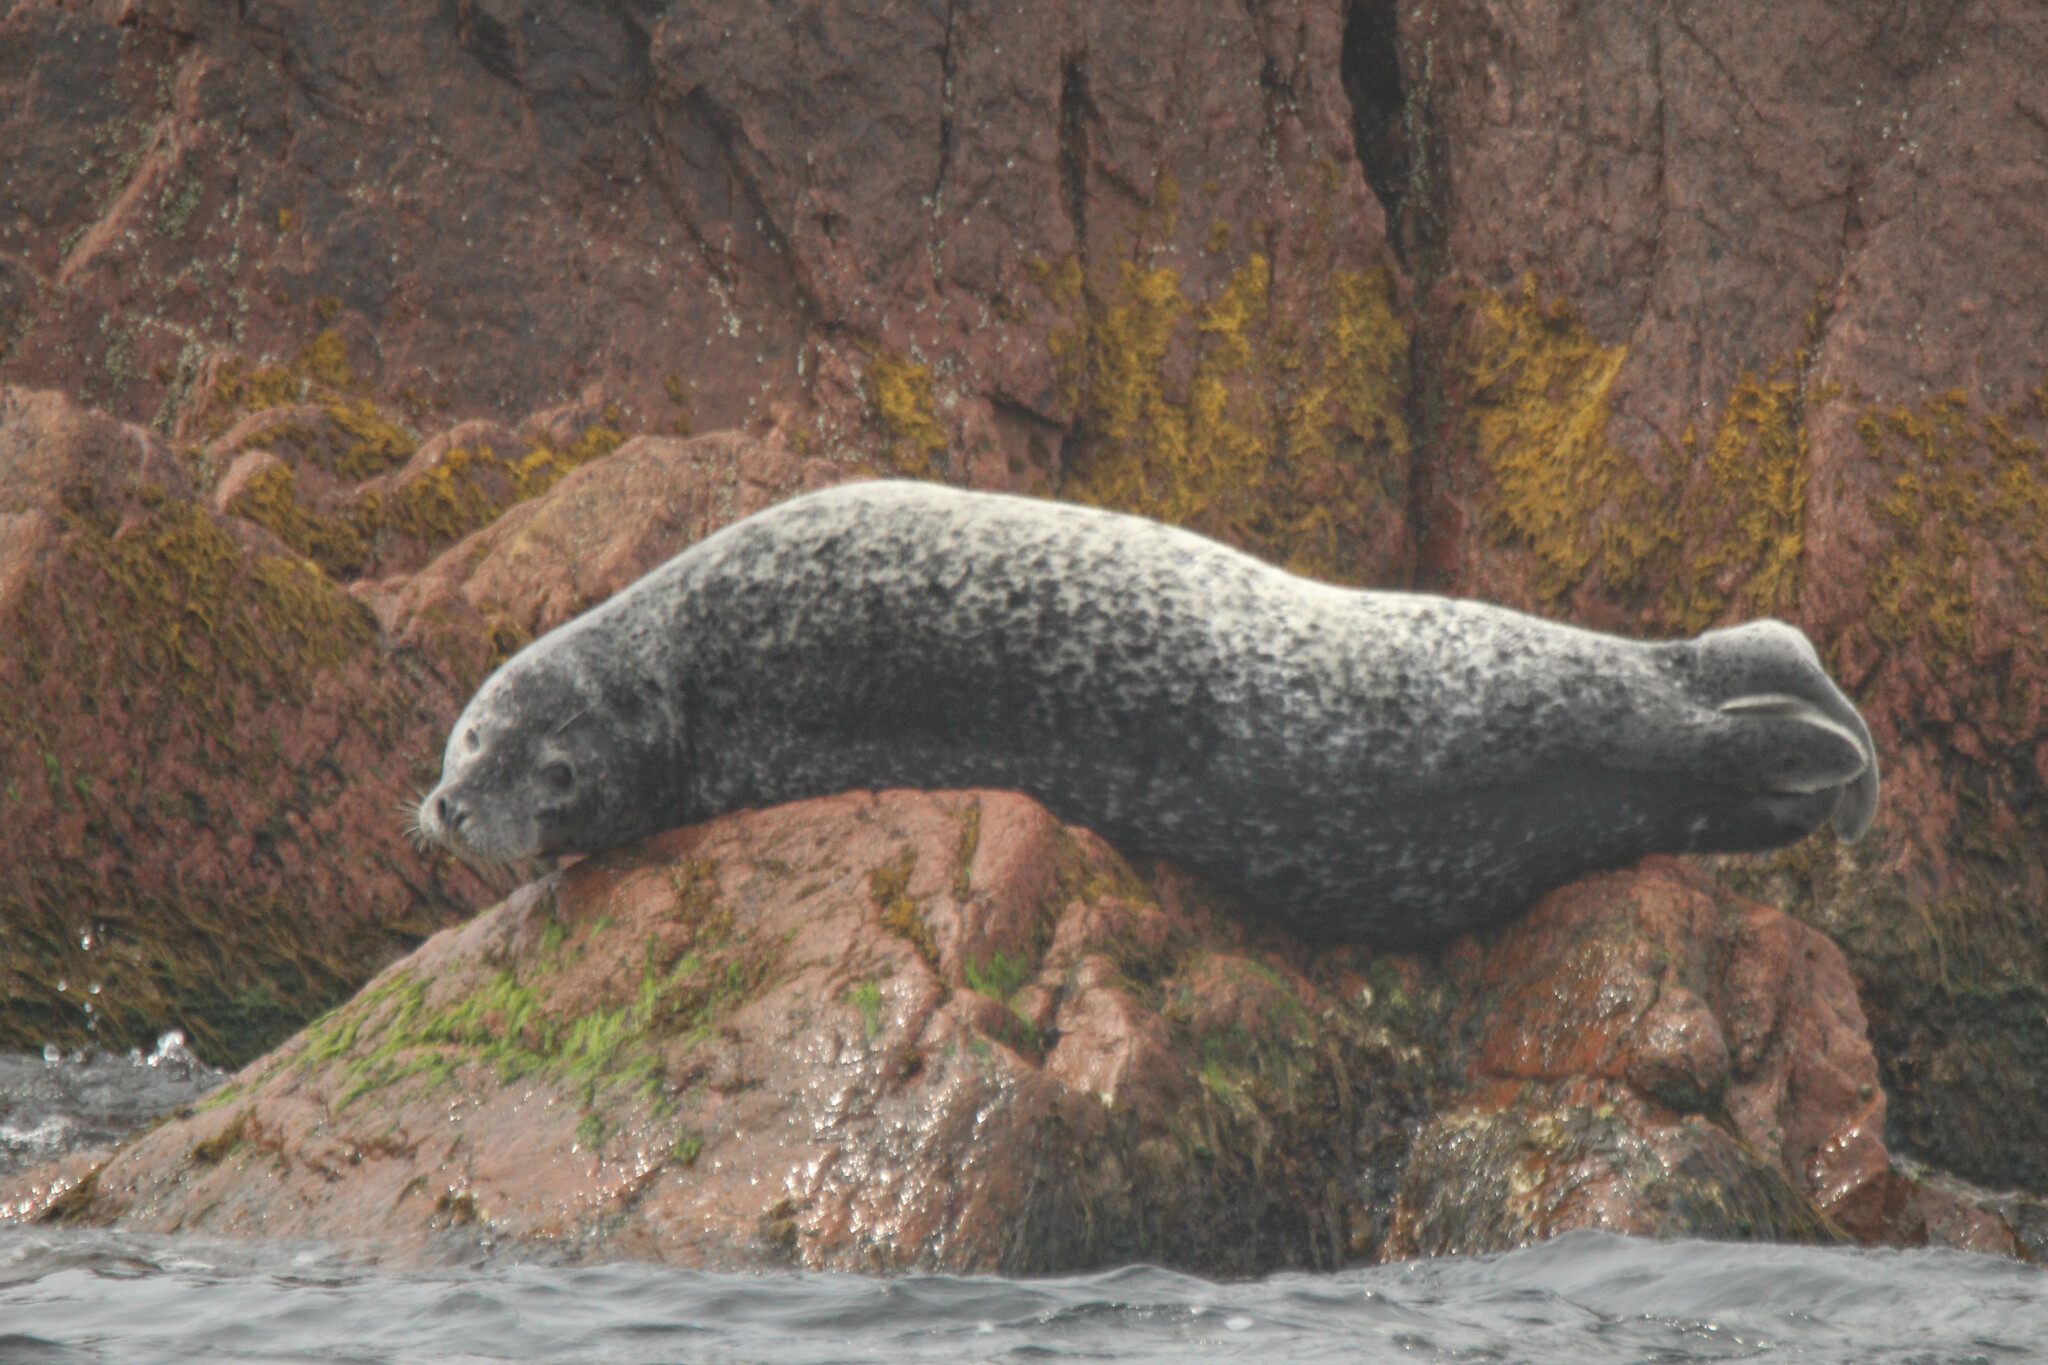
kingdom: Animalia
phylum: Chordata
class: Mammalia
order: Carnivora
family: Phocidae
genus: Phoca
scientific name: Phoca largha
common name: Spotted seal
